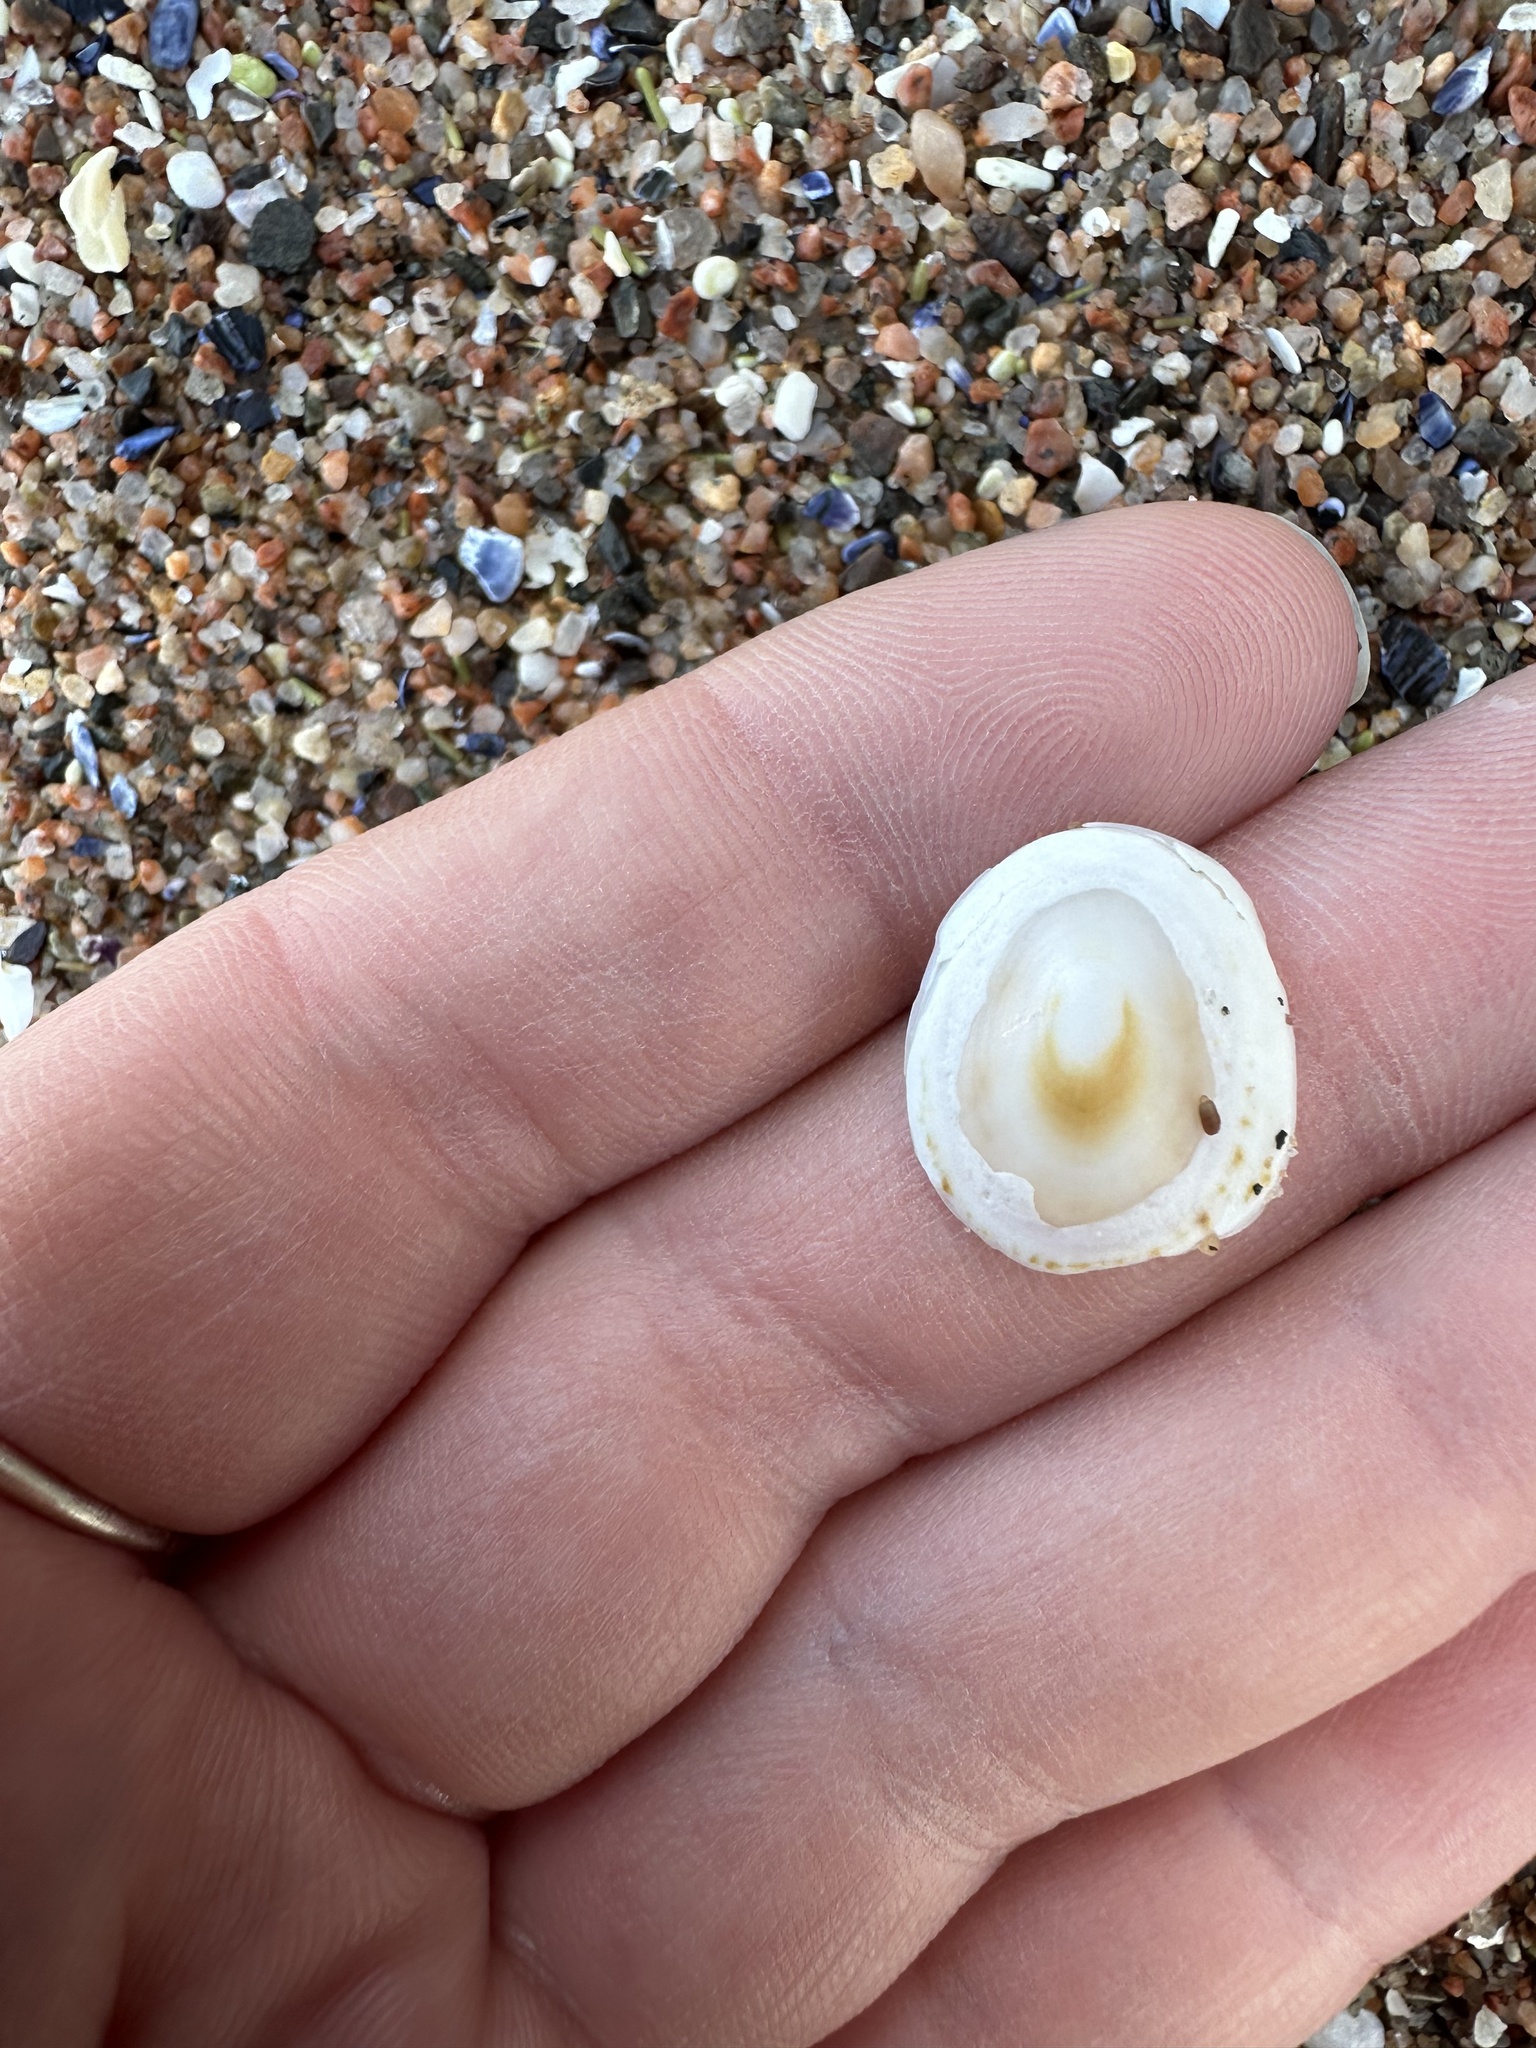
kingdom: Animalia
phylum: Mollusca
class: Gastropoda
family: Lottiidae
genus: Testudinalia
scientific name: Testudinalia testudinalis
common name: Common tortoiseshell limpet
